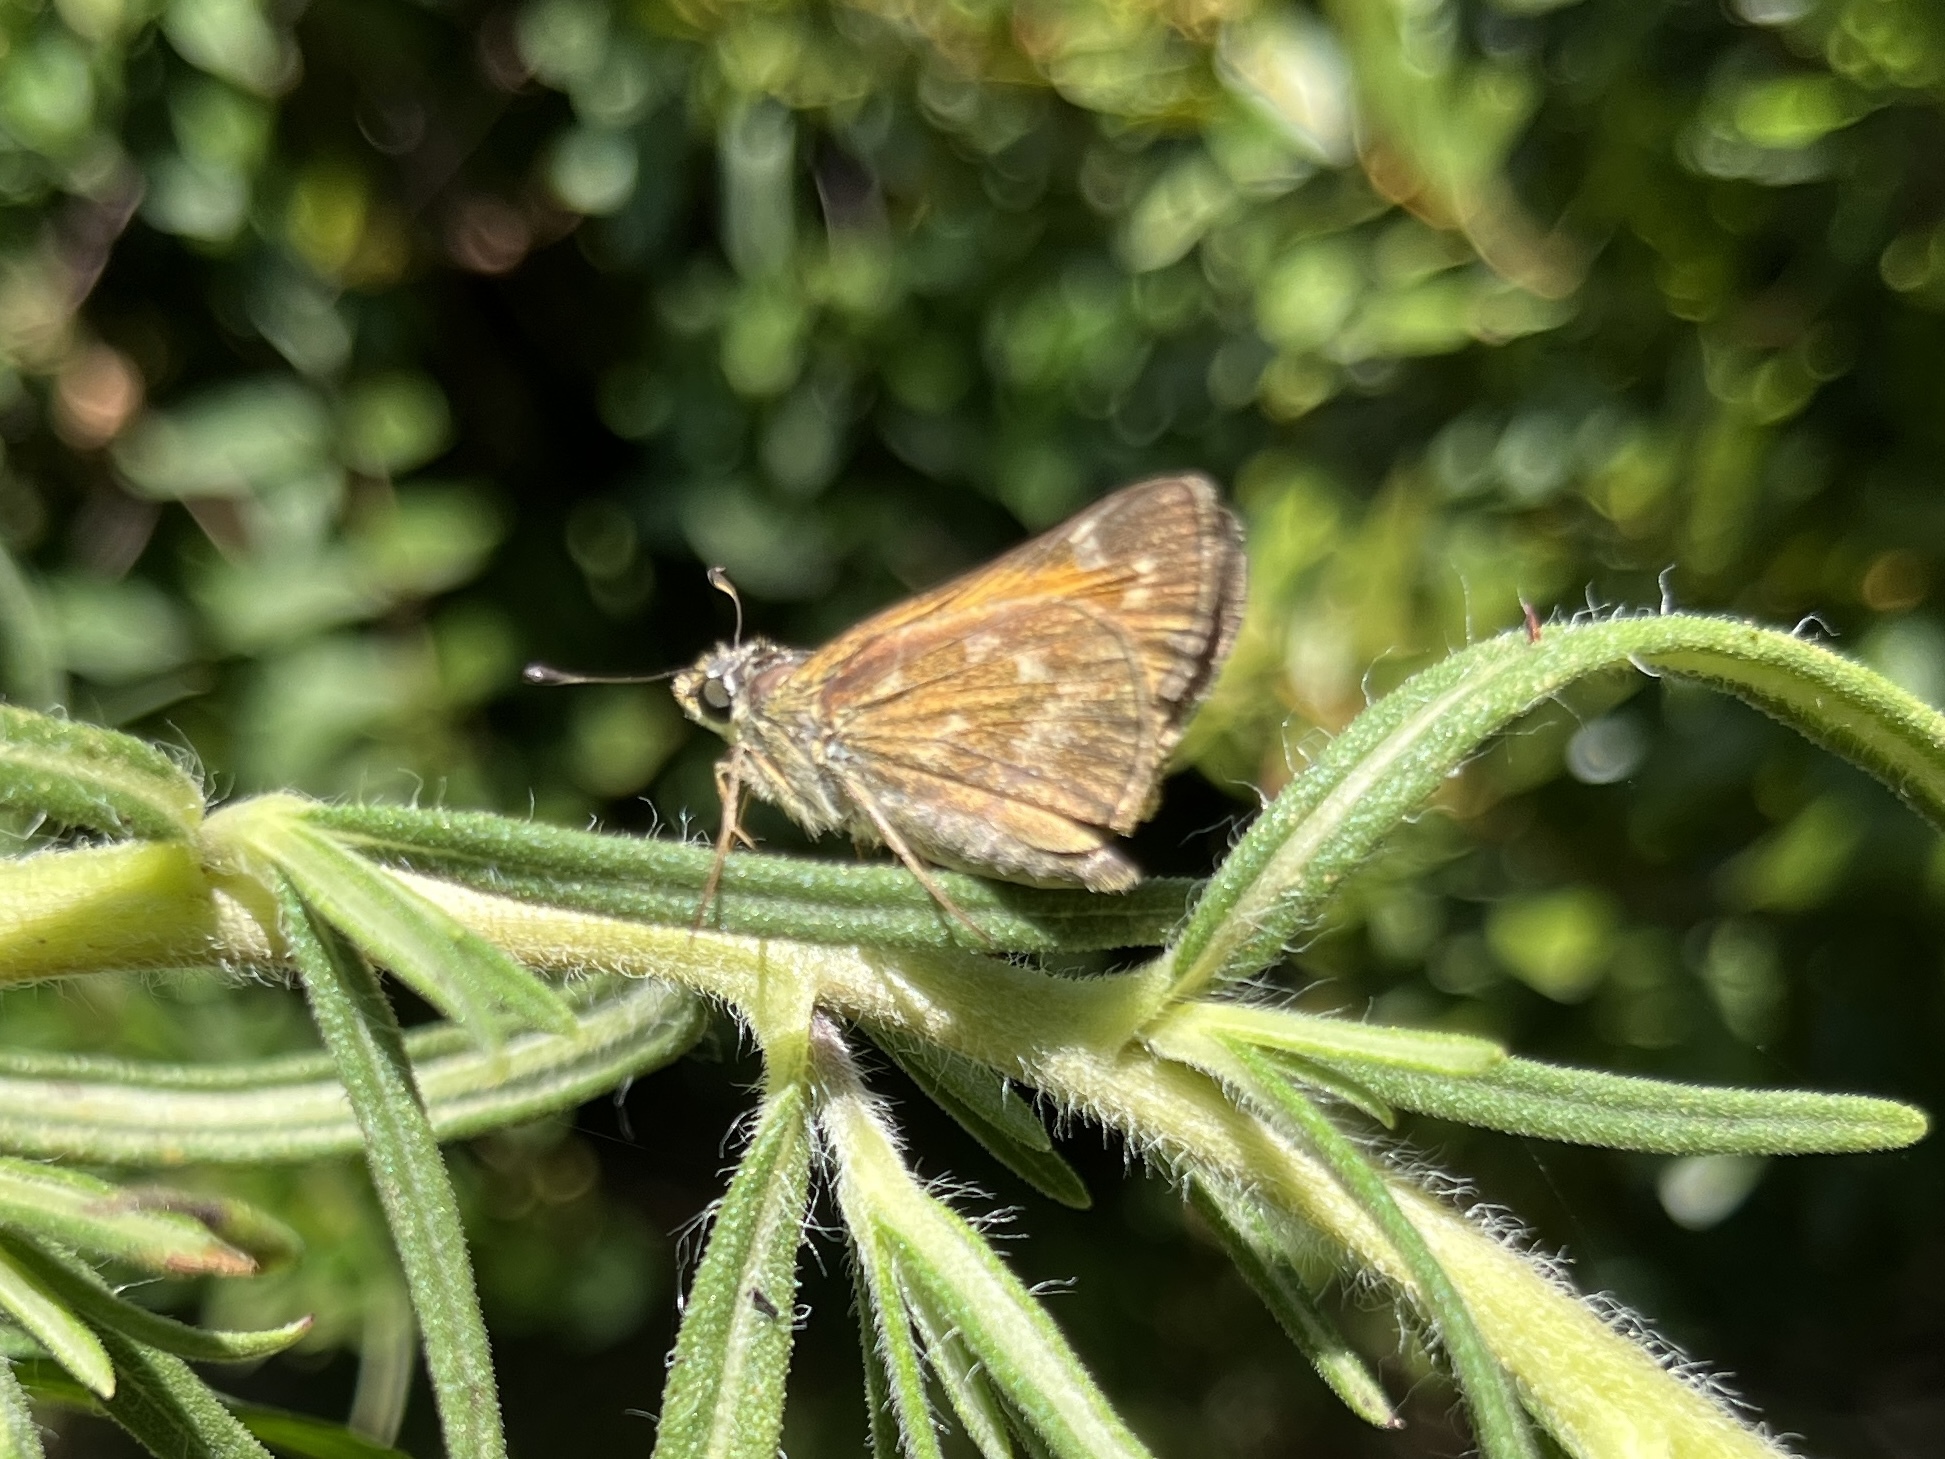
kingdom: Animalia
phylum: Arthropoda
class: Insecta
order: Lepidoptera
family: Hesperiidae
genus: Atalopedes
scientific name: Atalopedes
